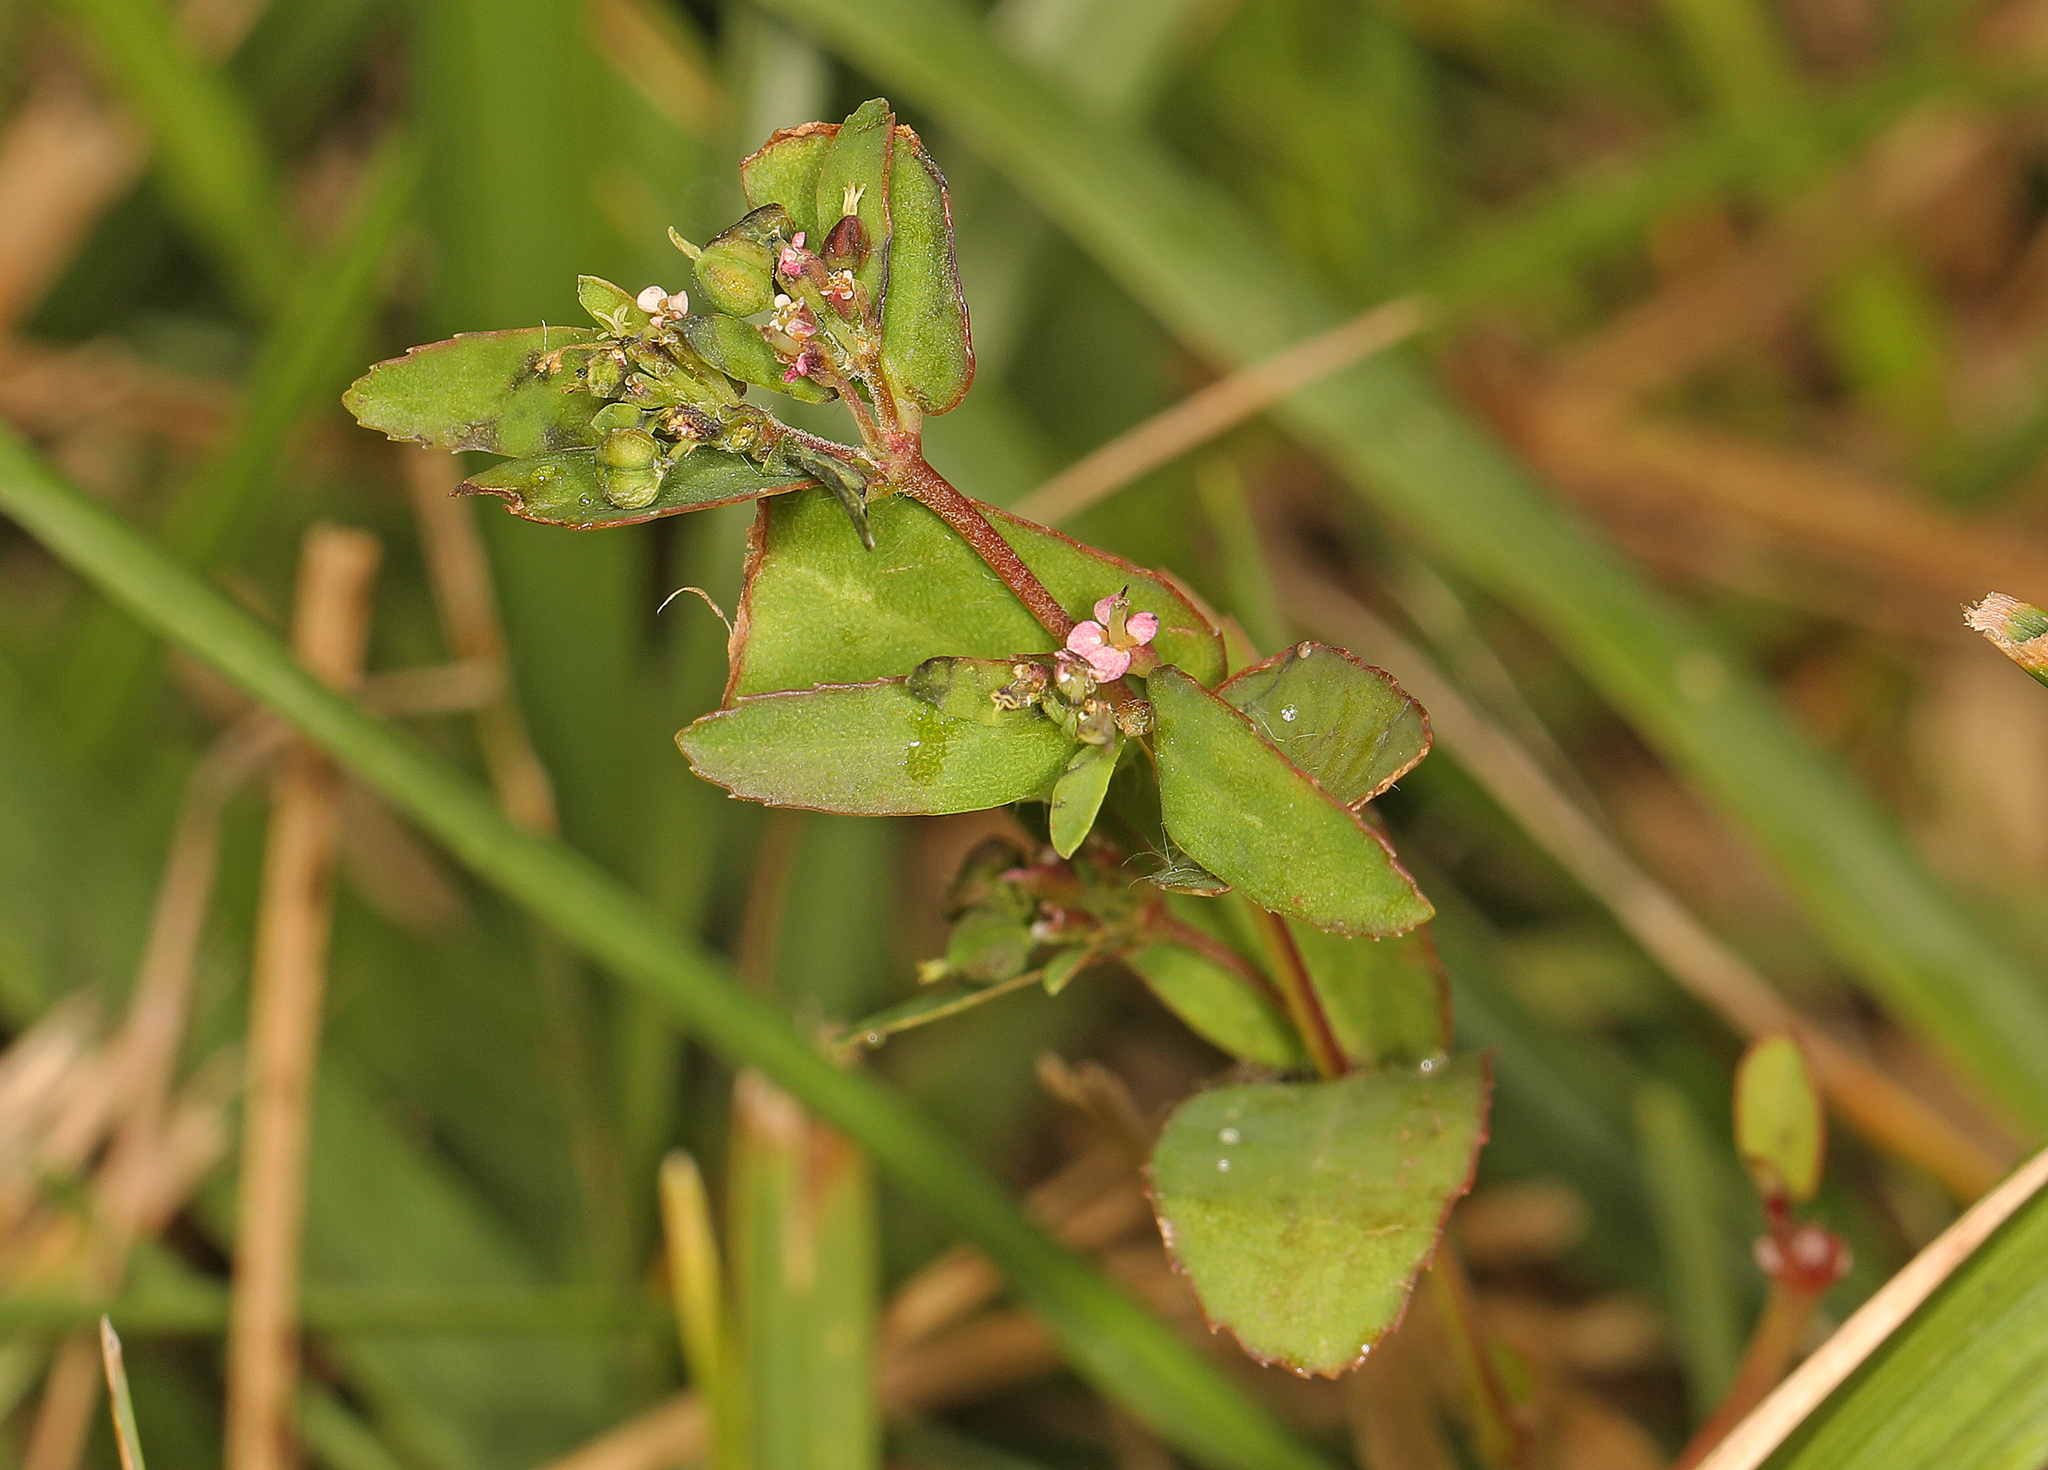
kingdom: Plantae
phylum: Tracheophyta
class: Magnoliopsida
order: Malpighiales
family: Euphorbiaceae
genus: Euphorbia
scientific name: Euphorbia nutans
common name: Eyebane
